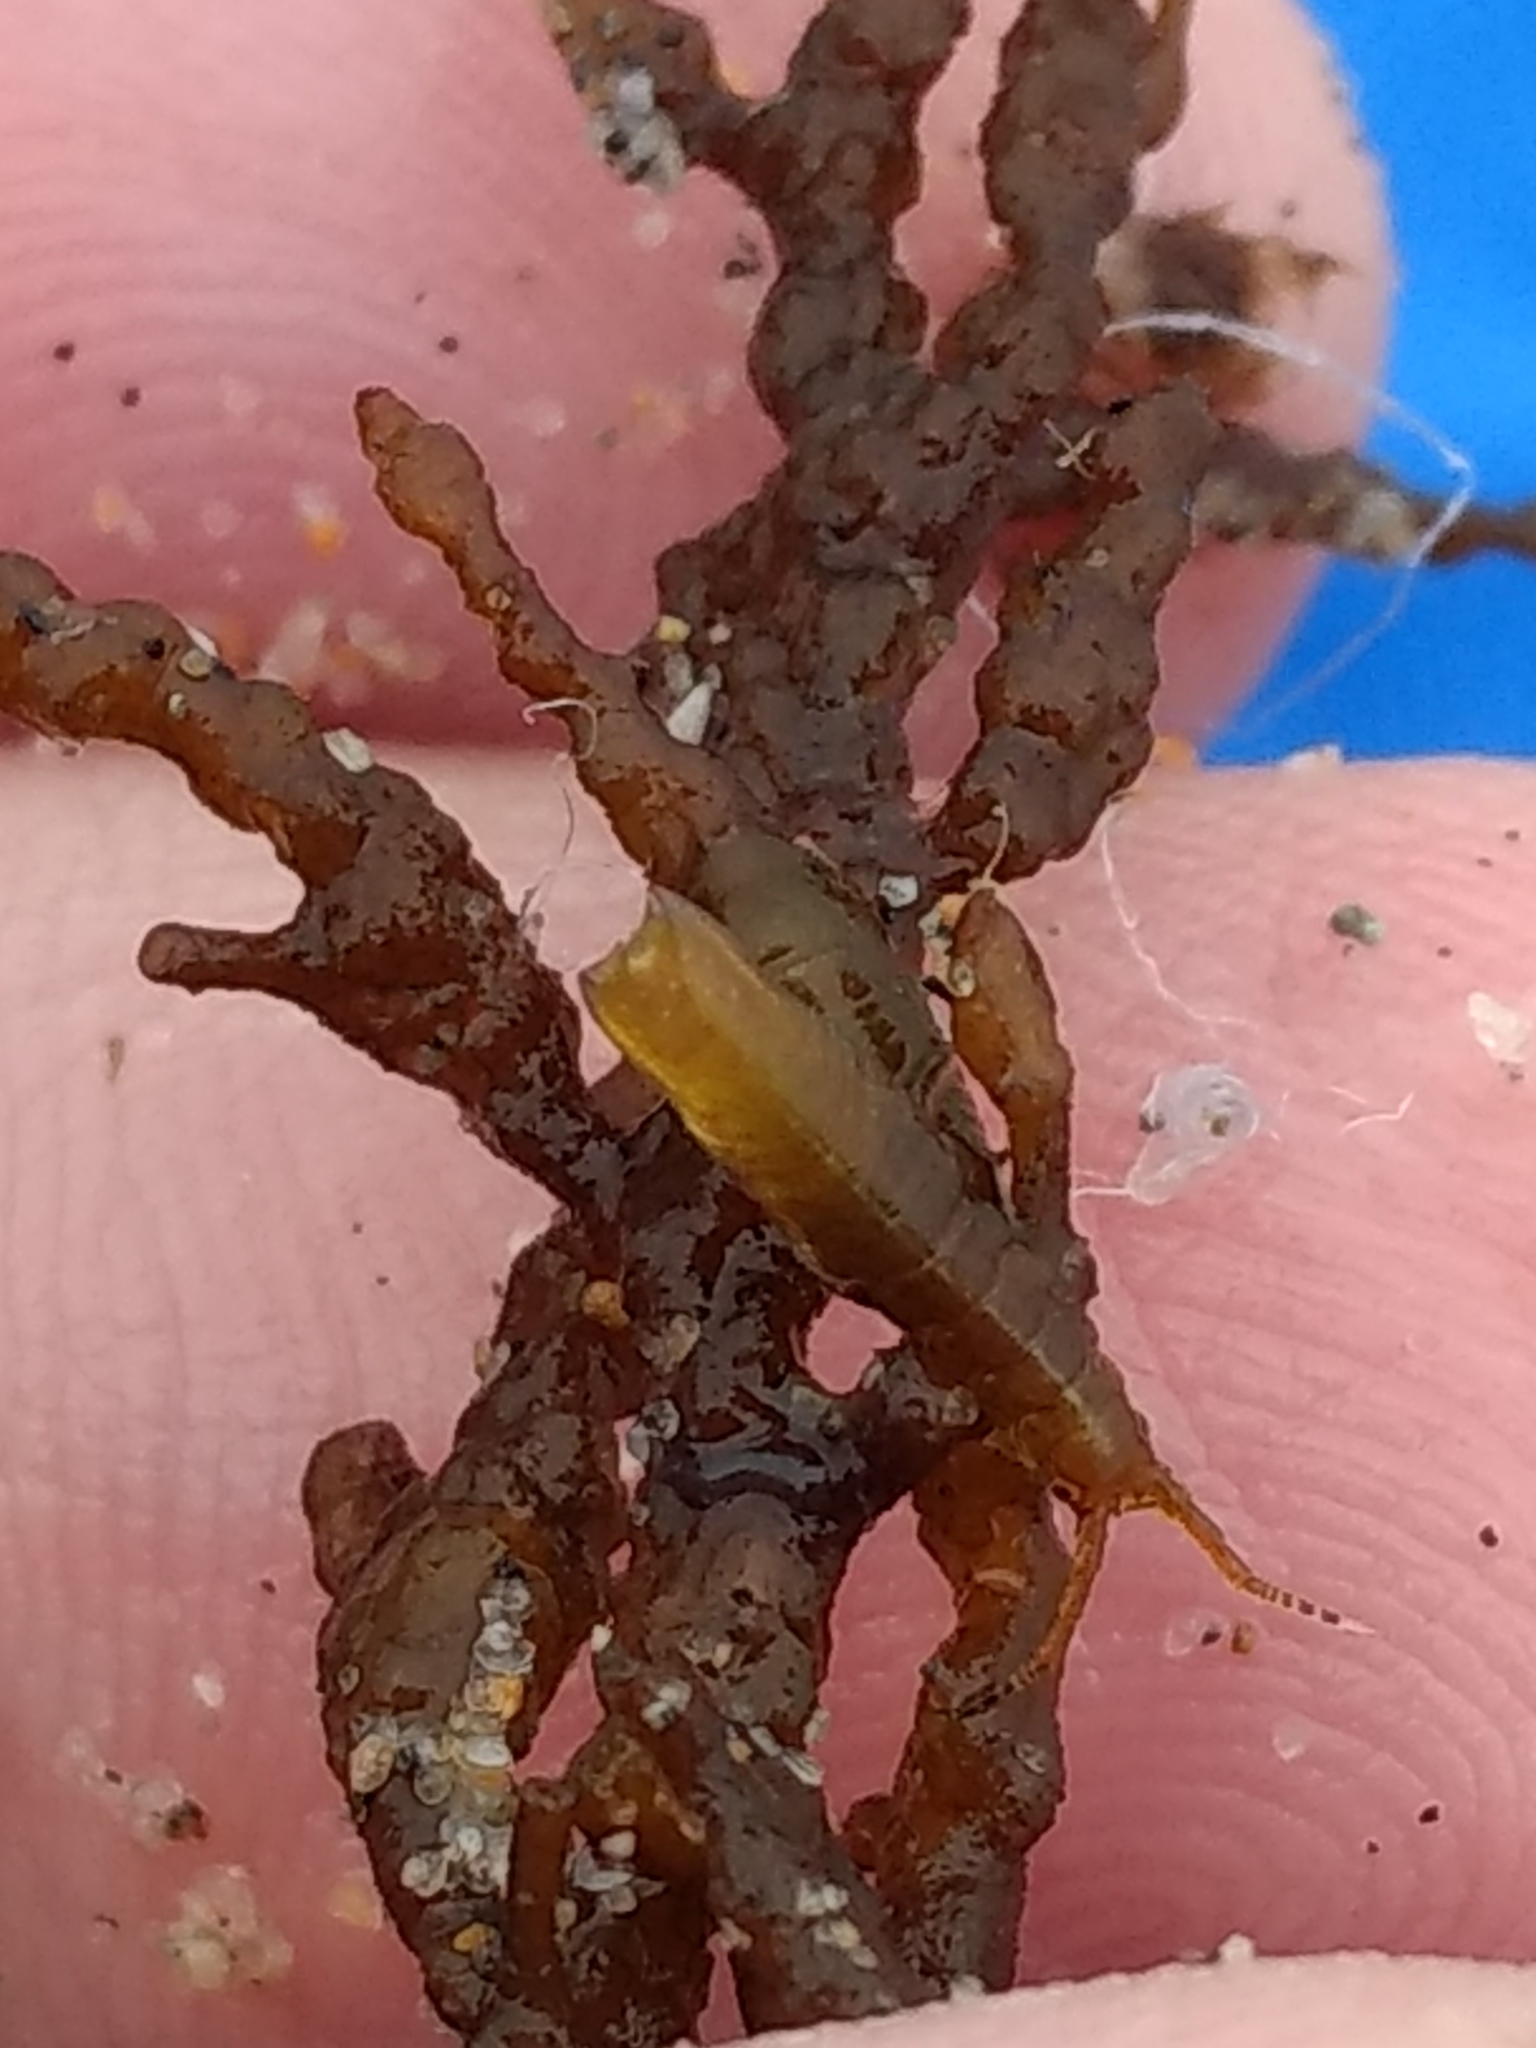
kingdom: Animalia
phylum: Arthropoda
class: Malacostraca
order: Isopoda
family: Idoteidae
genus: Pentidotea
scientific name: Pentidotea resecata
